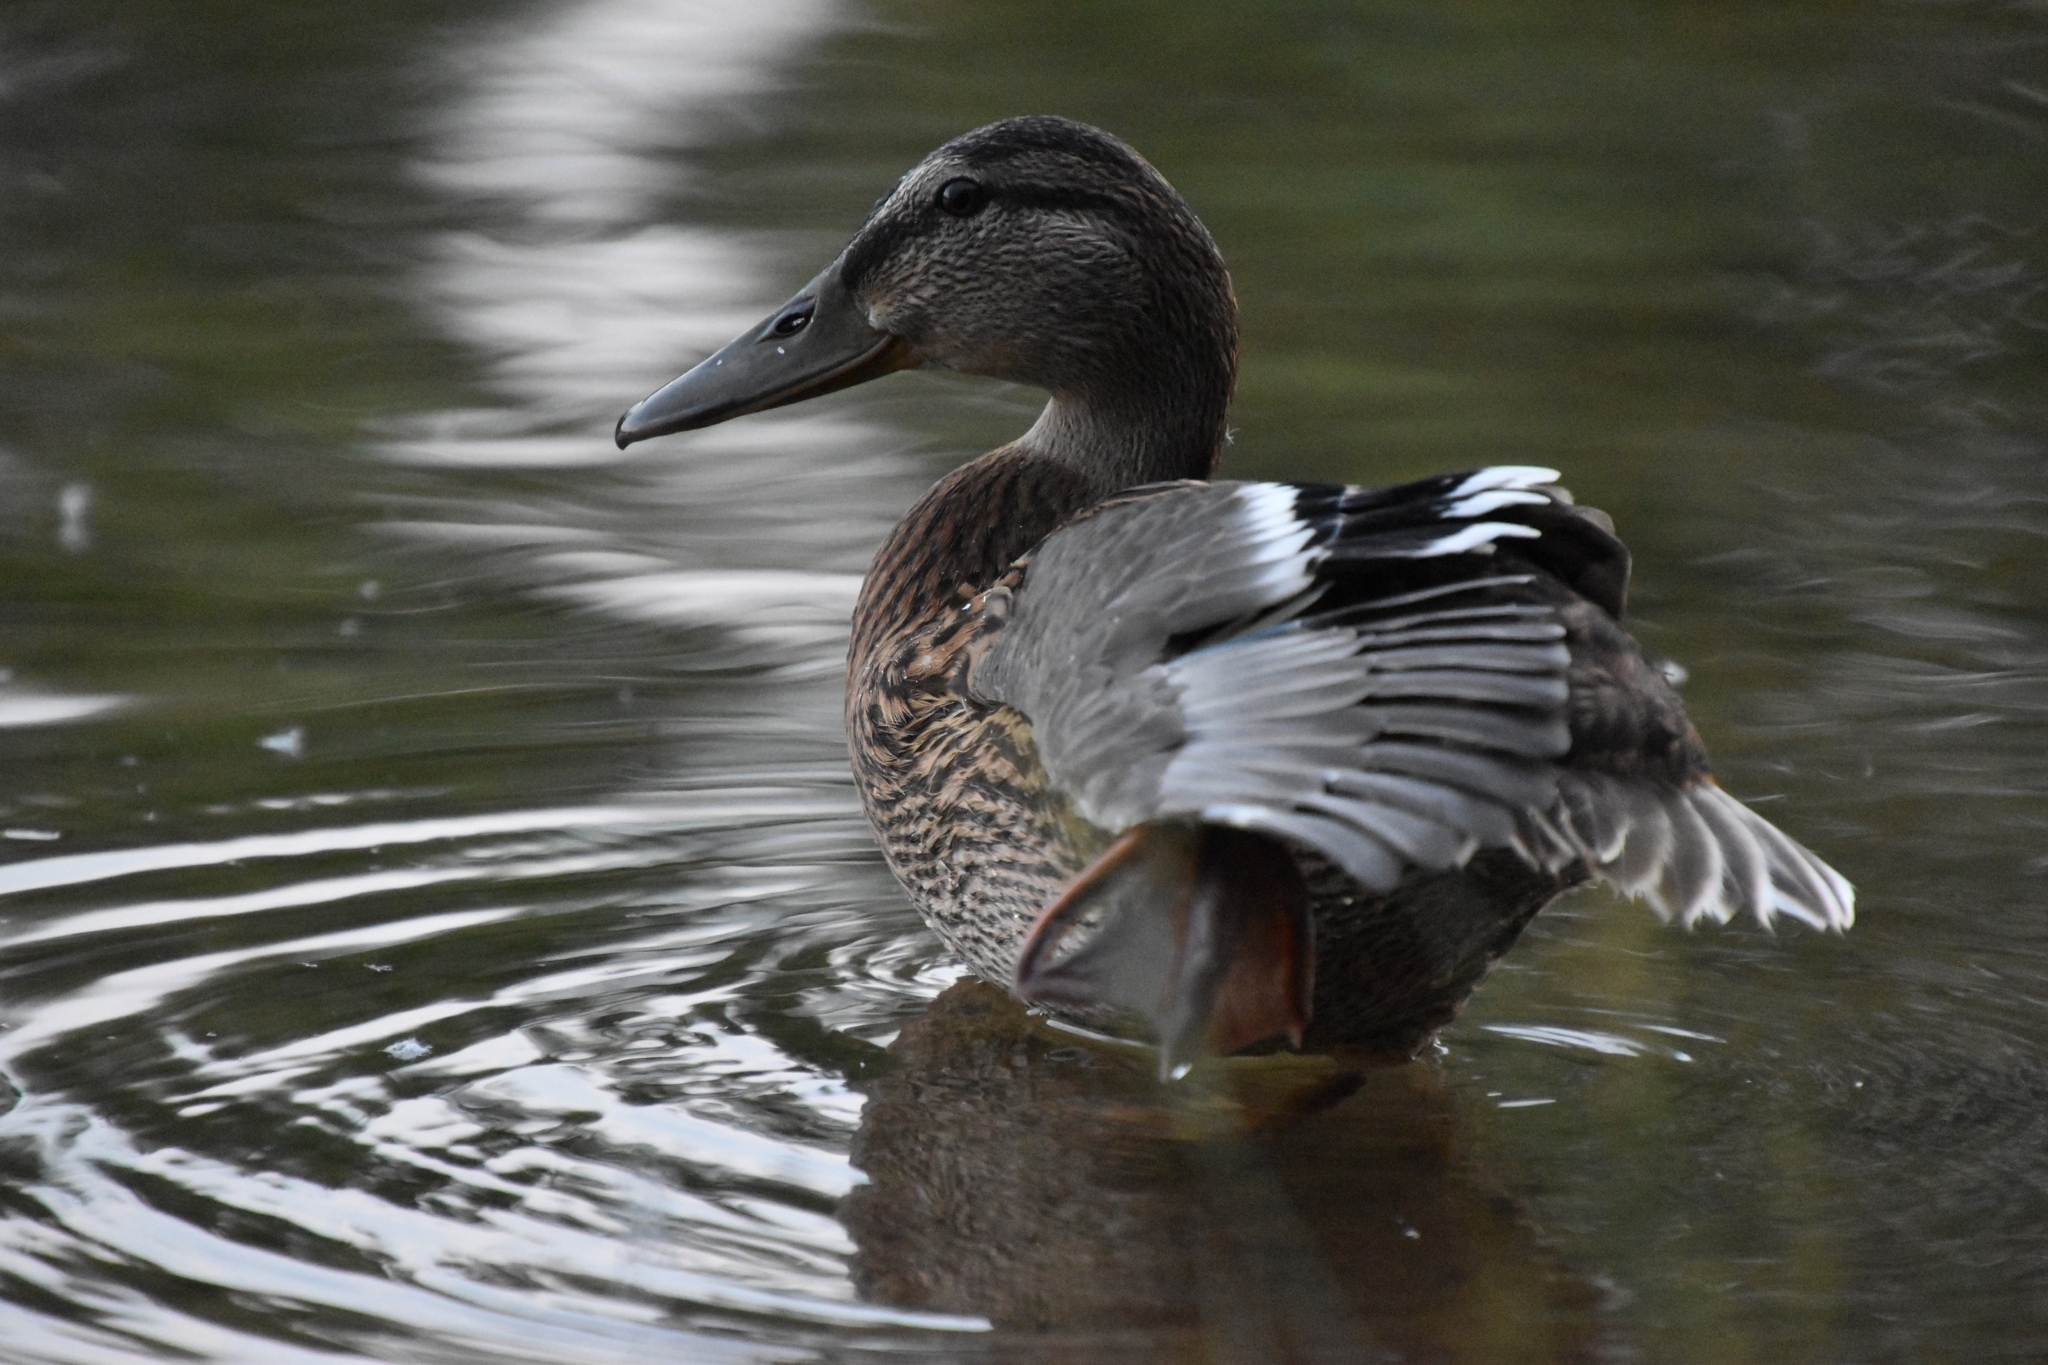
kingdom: Animalia
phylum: Chordata
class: Aves
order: Anseriformes
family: Anatidae
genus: Anas
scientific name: Anas platyrhynchos
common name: Mallard
